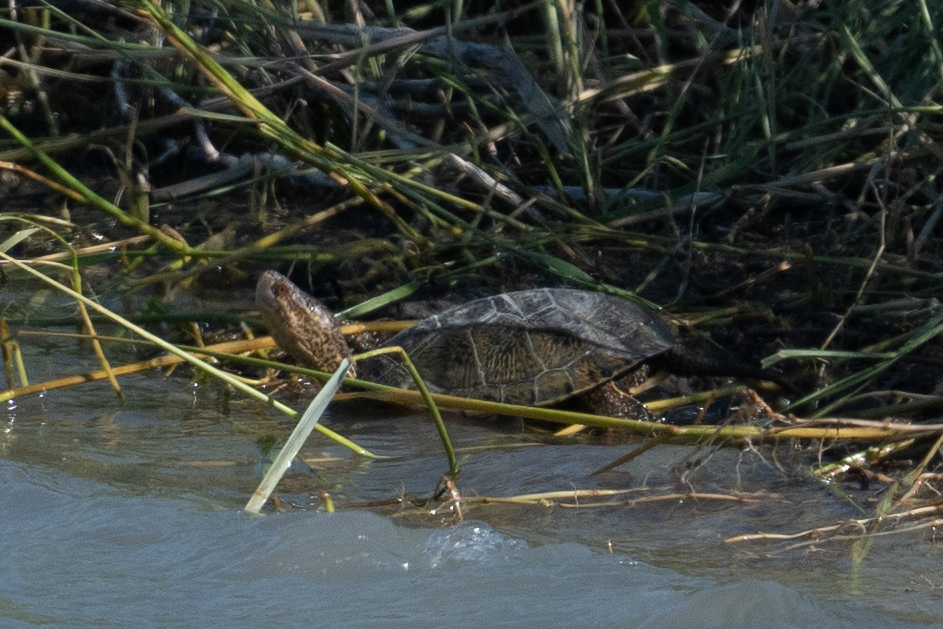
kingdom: Animalia
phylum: Chordata
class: Testudines
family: Emydidae
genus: Actinemys
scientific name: Actinemys marmorata
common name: Western pond turtle
